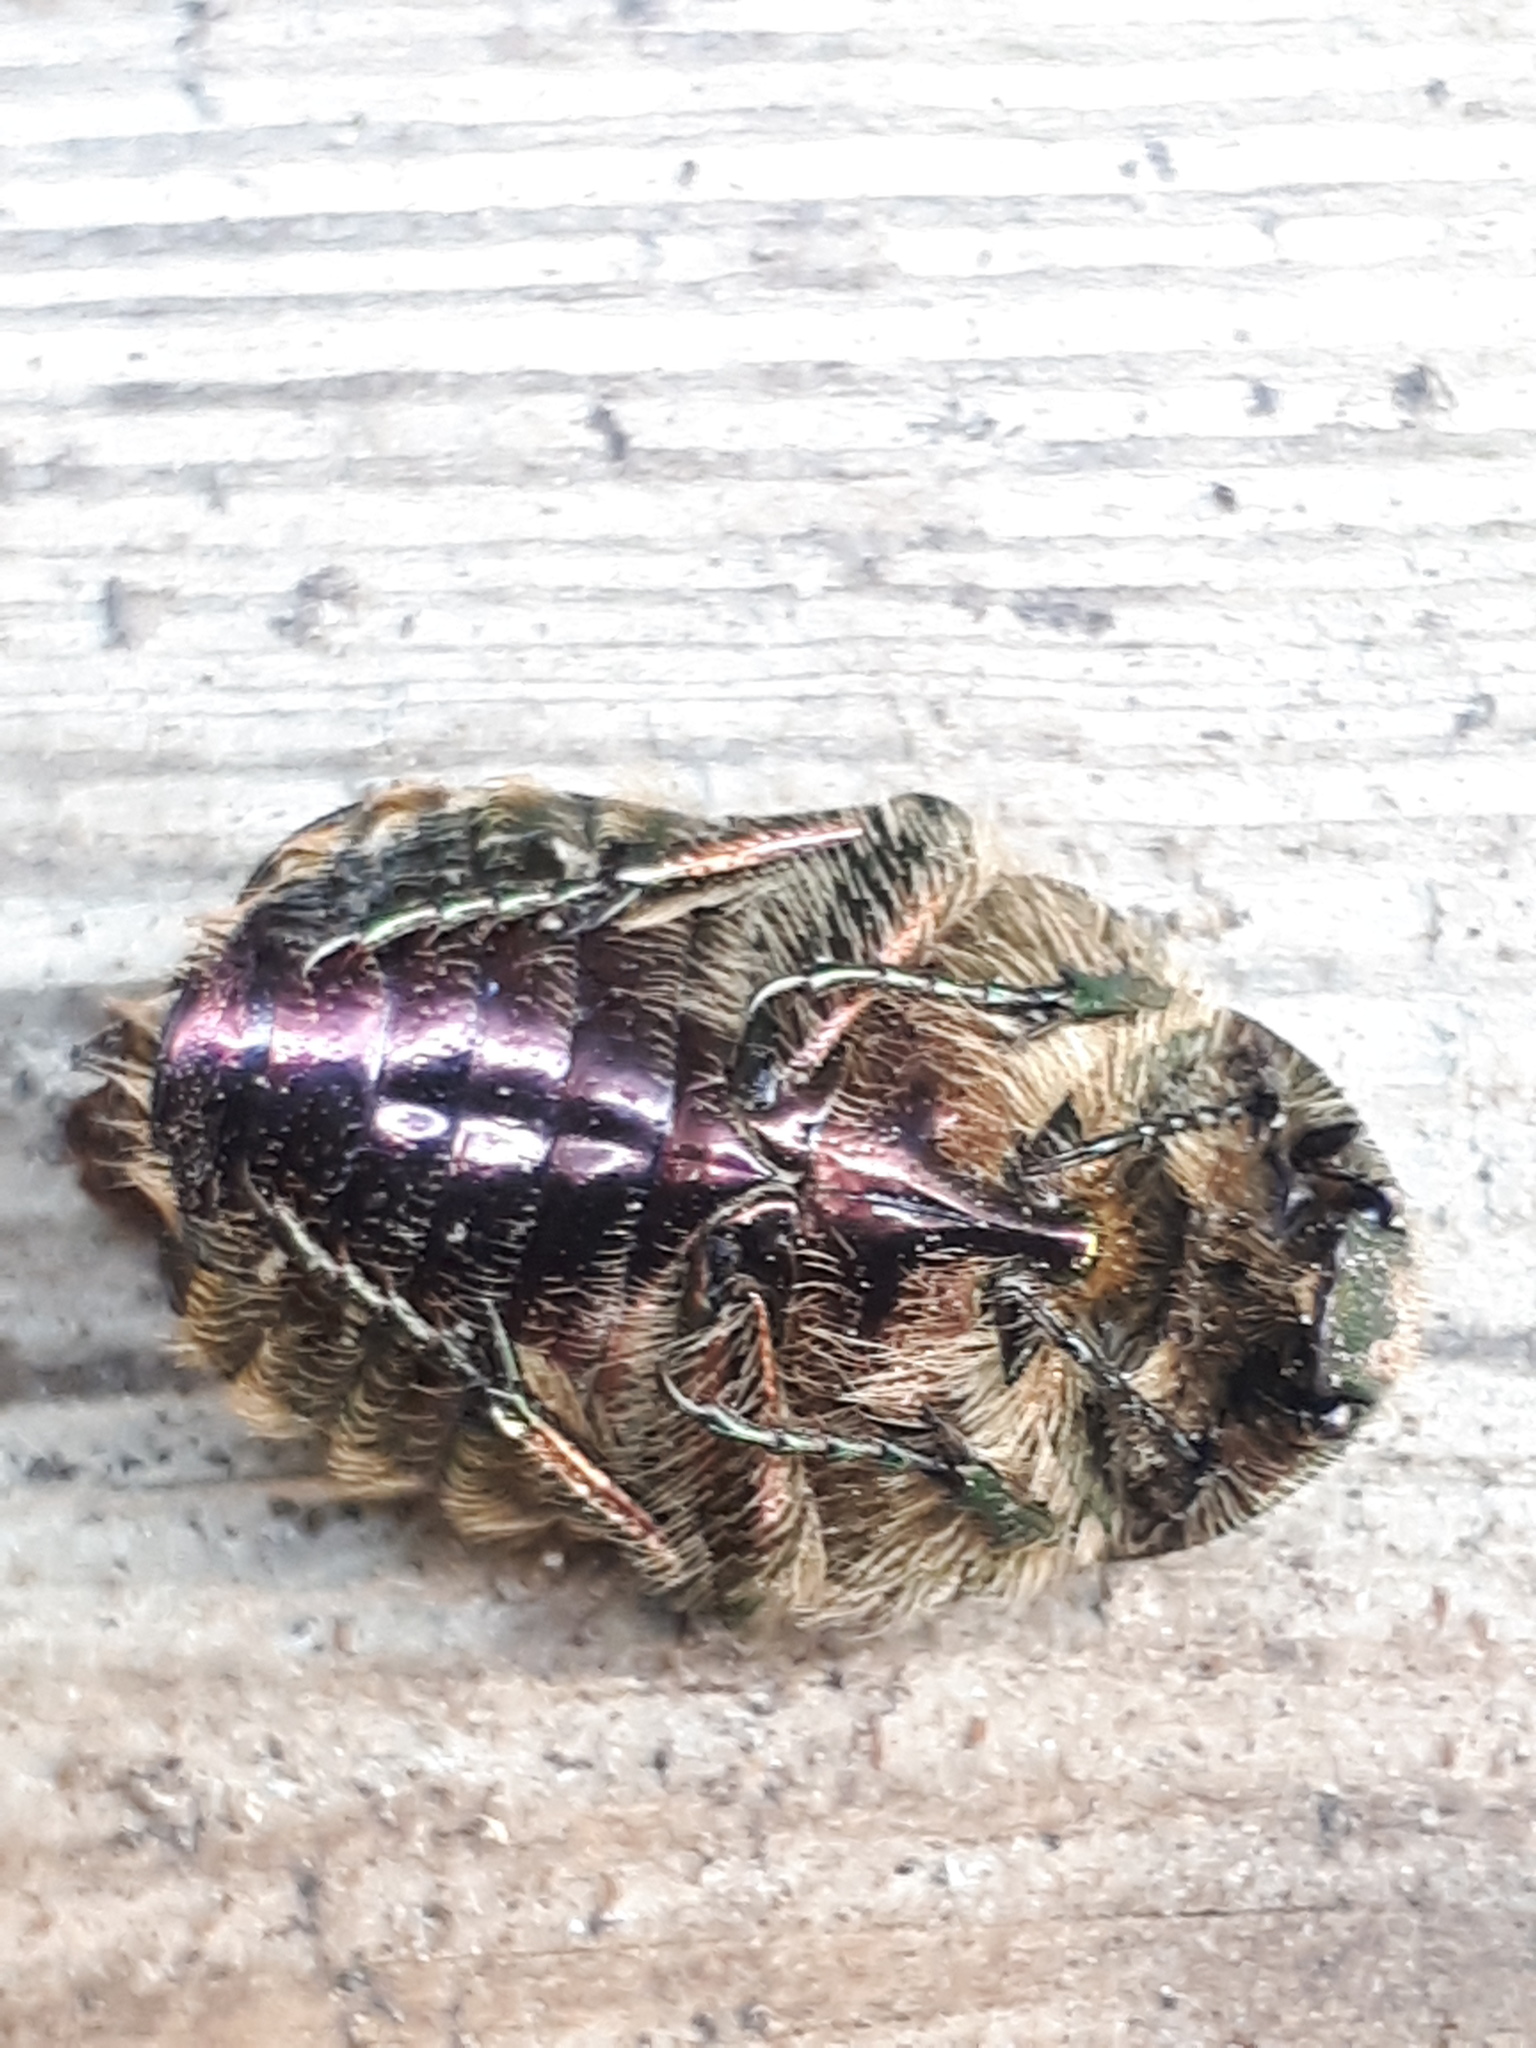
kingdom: Animalia
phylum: Arthropoda
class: Insecta
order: Coleoptera
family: Scarabaeidae
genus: Cetonia
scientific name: Cetonia aurata
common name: Rose chafer
